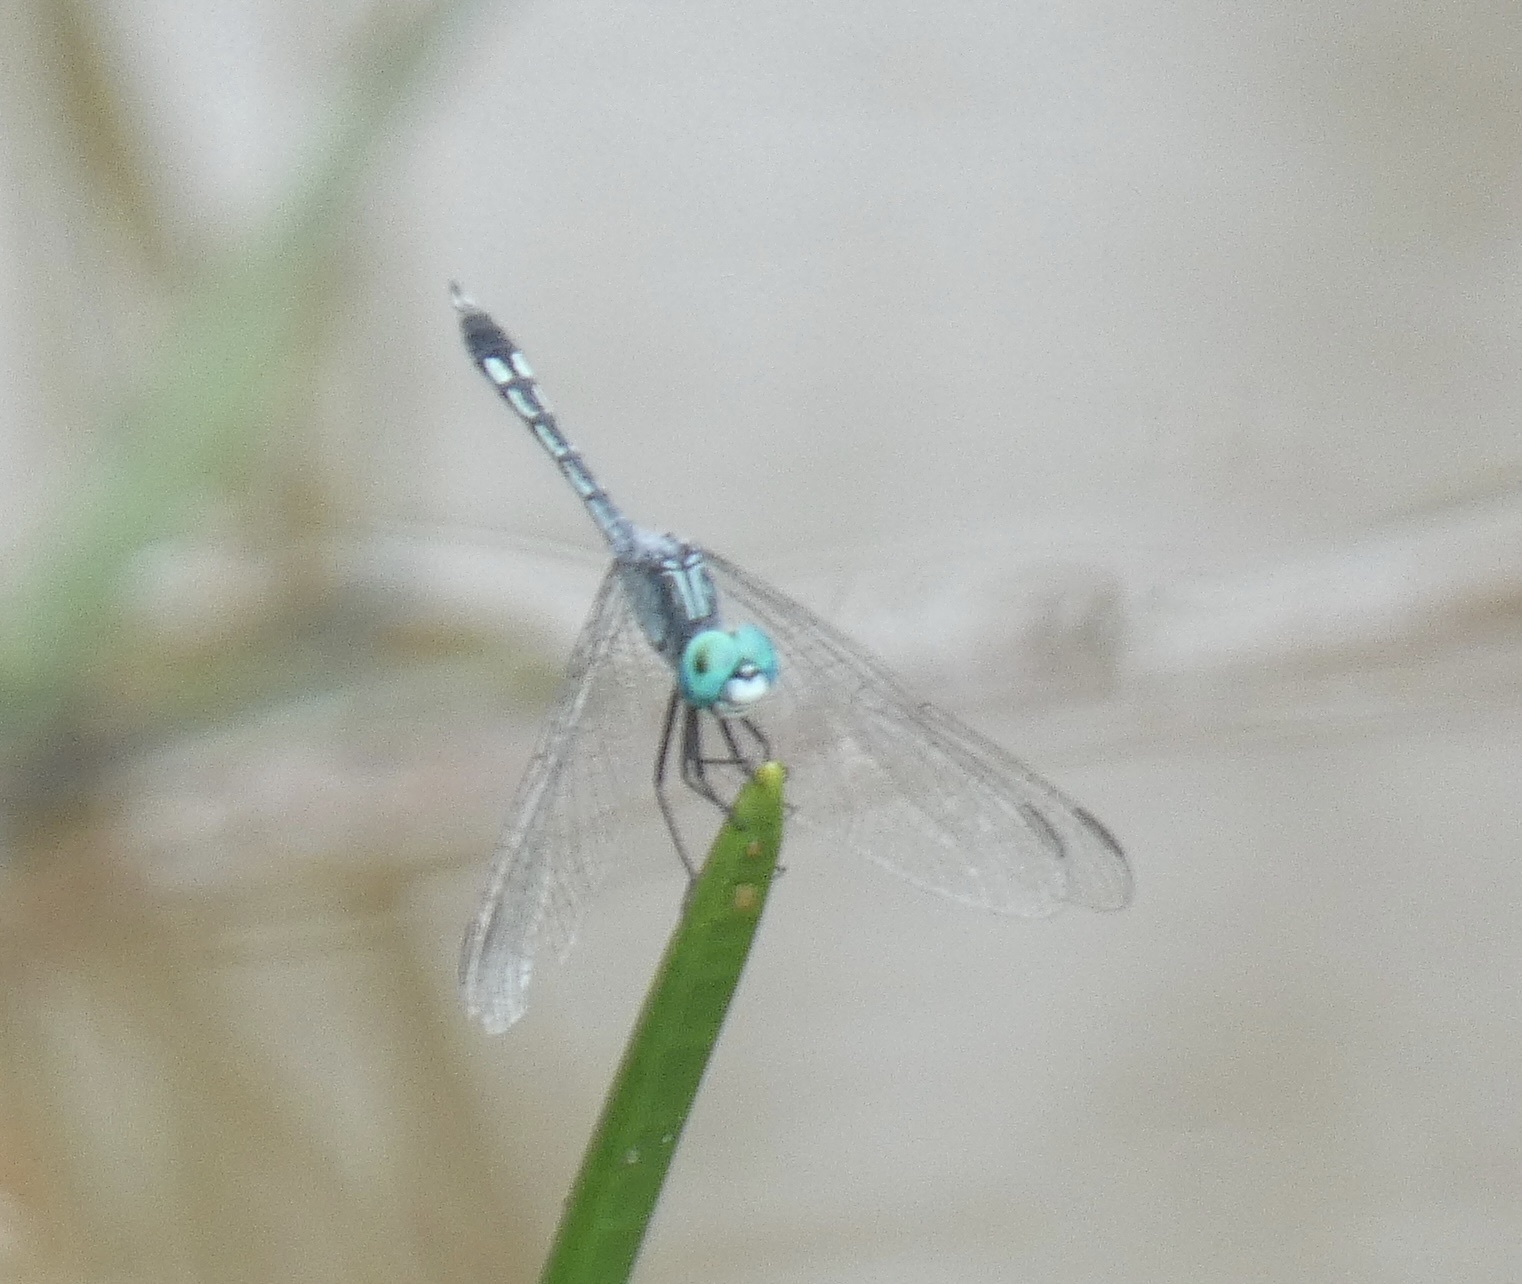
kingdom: Animalia
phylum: Arthropoda
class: Insecta
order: Odonata
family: Libellulidae
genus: Micrathyria
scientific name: Micrathyria spuria
